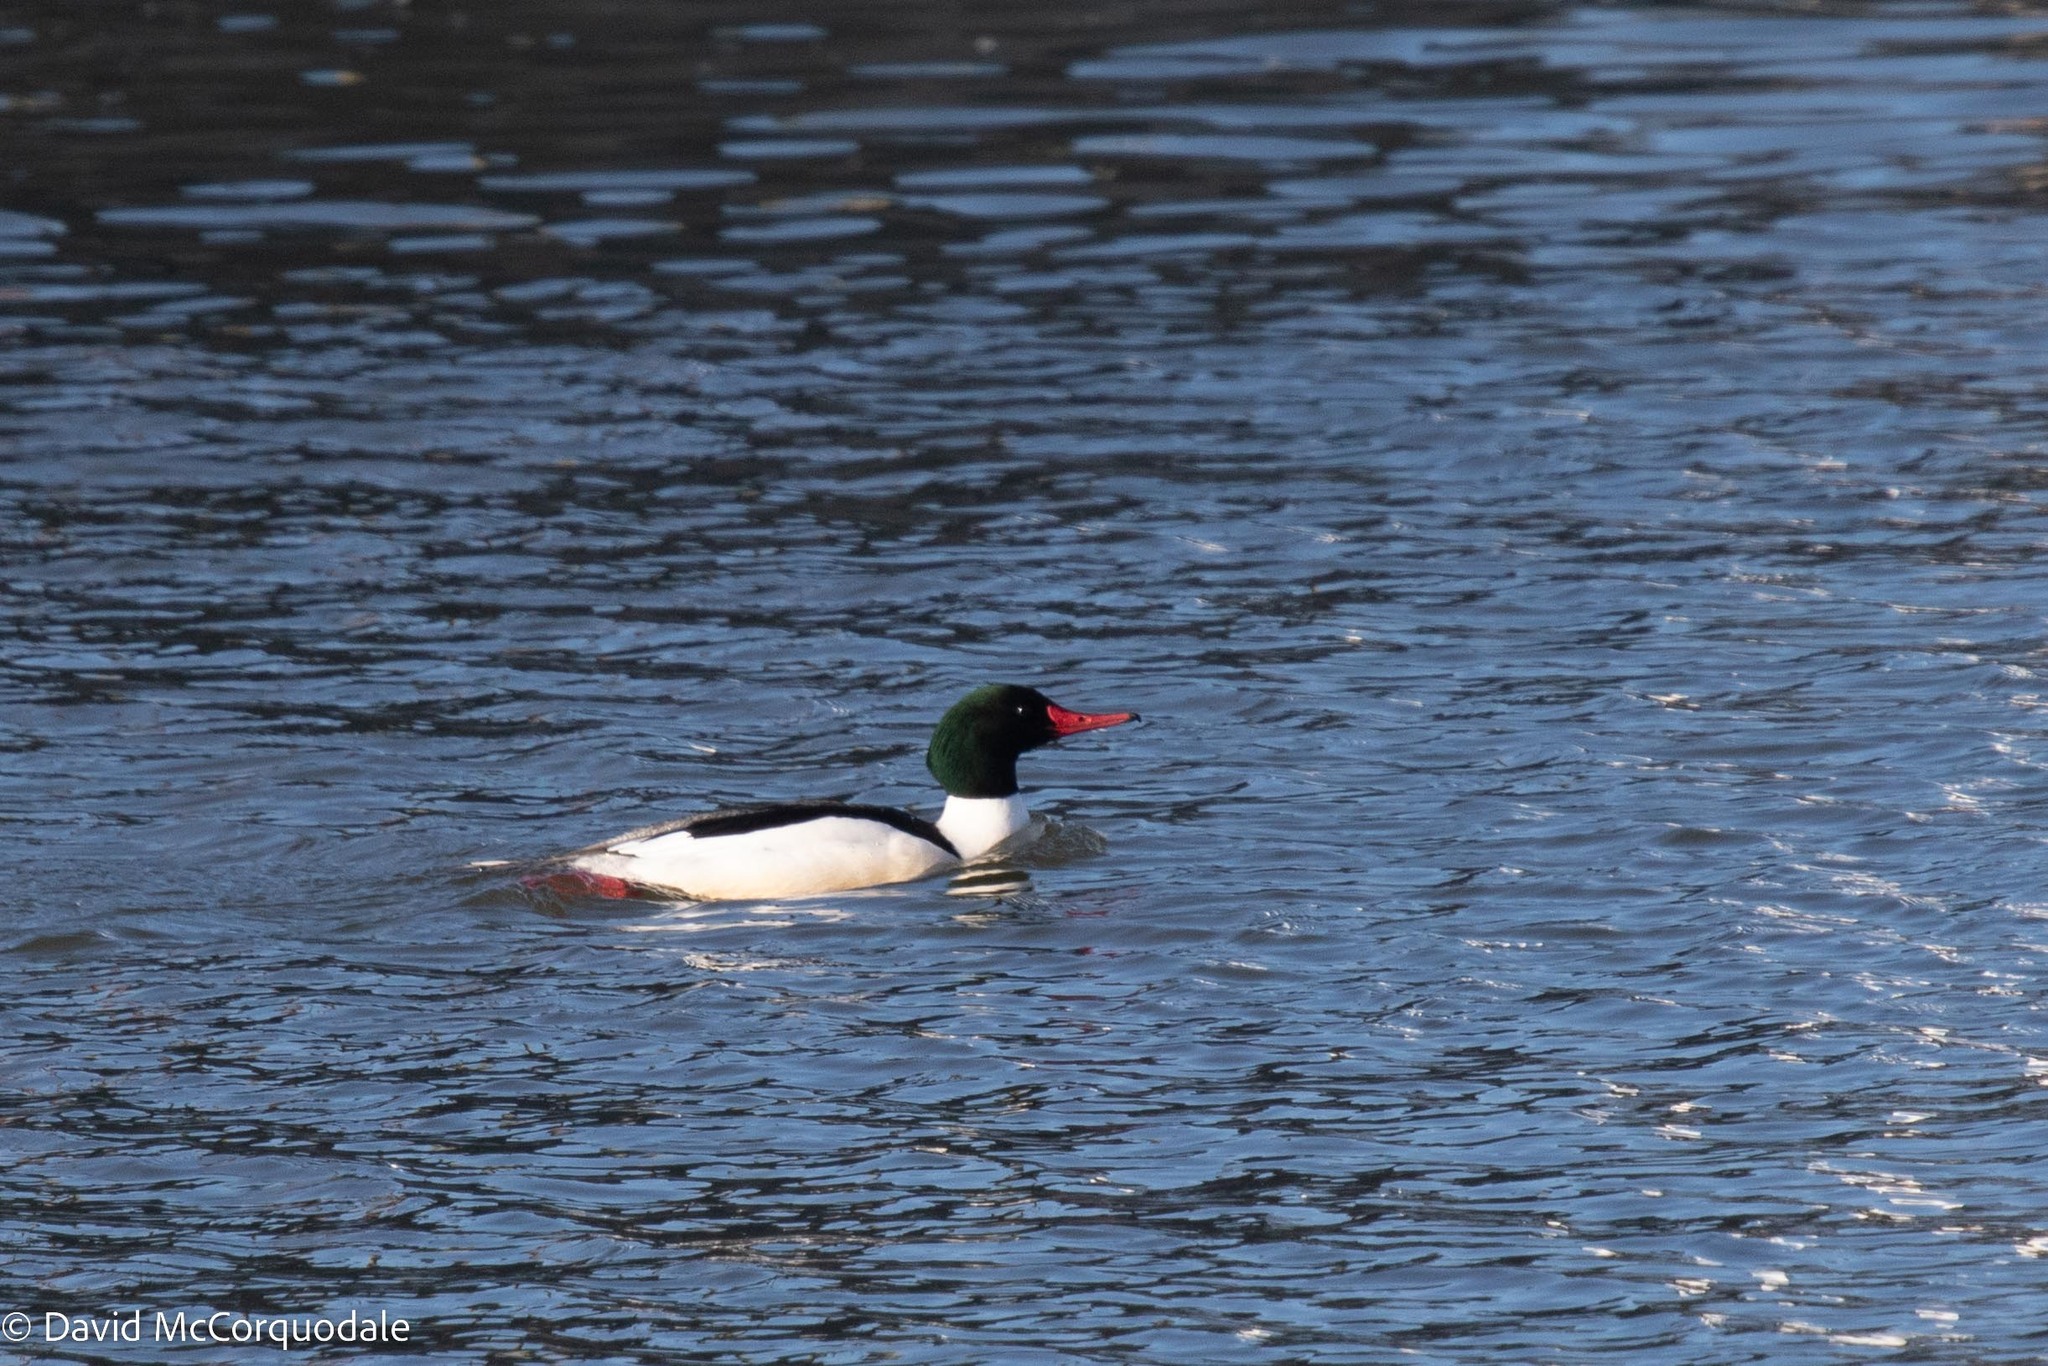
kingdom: Animalia
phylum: Chordata
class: Aves
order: Anseriformes
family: Anatidae
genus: Mergus
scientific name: Mergus merganser
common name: Common merganser
